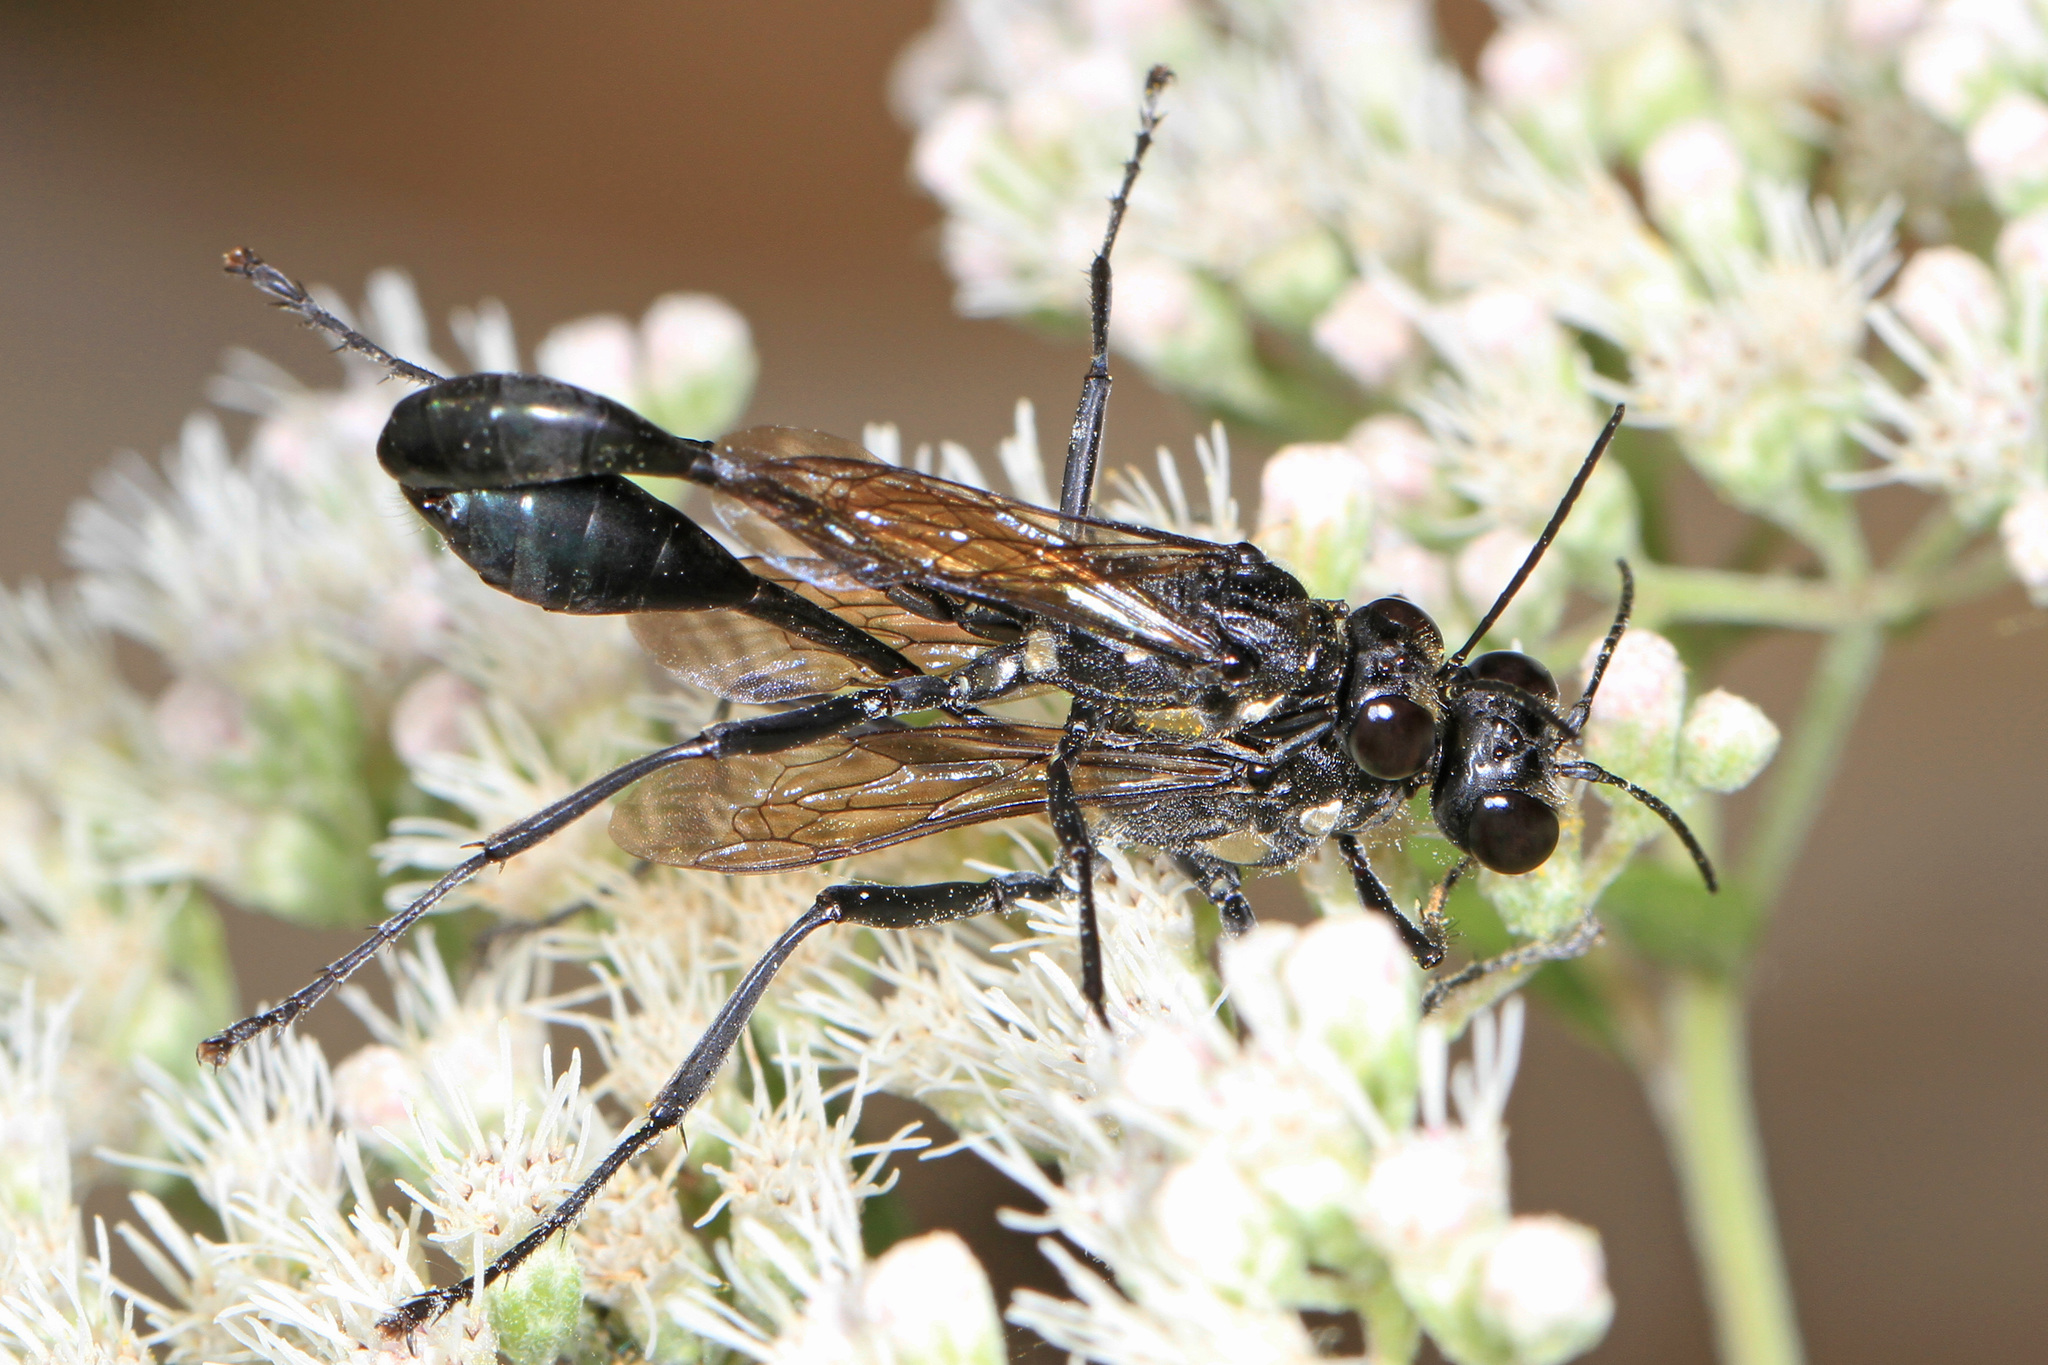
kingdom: Animalia
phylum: Arthropoda
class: Insecta
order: Hymenoptera
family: Sphecidae
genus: Eremnophila
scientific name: Eremnophila aureonotata
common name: Gold-marked thread-waisted wasp
